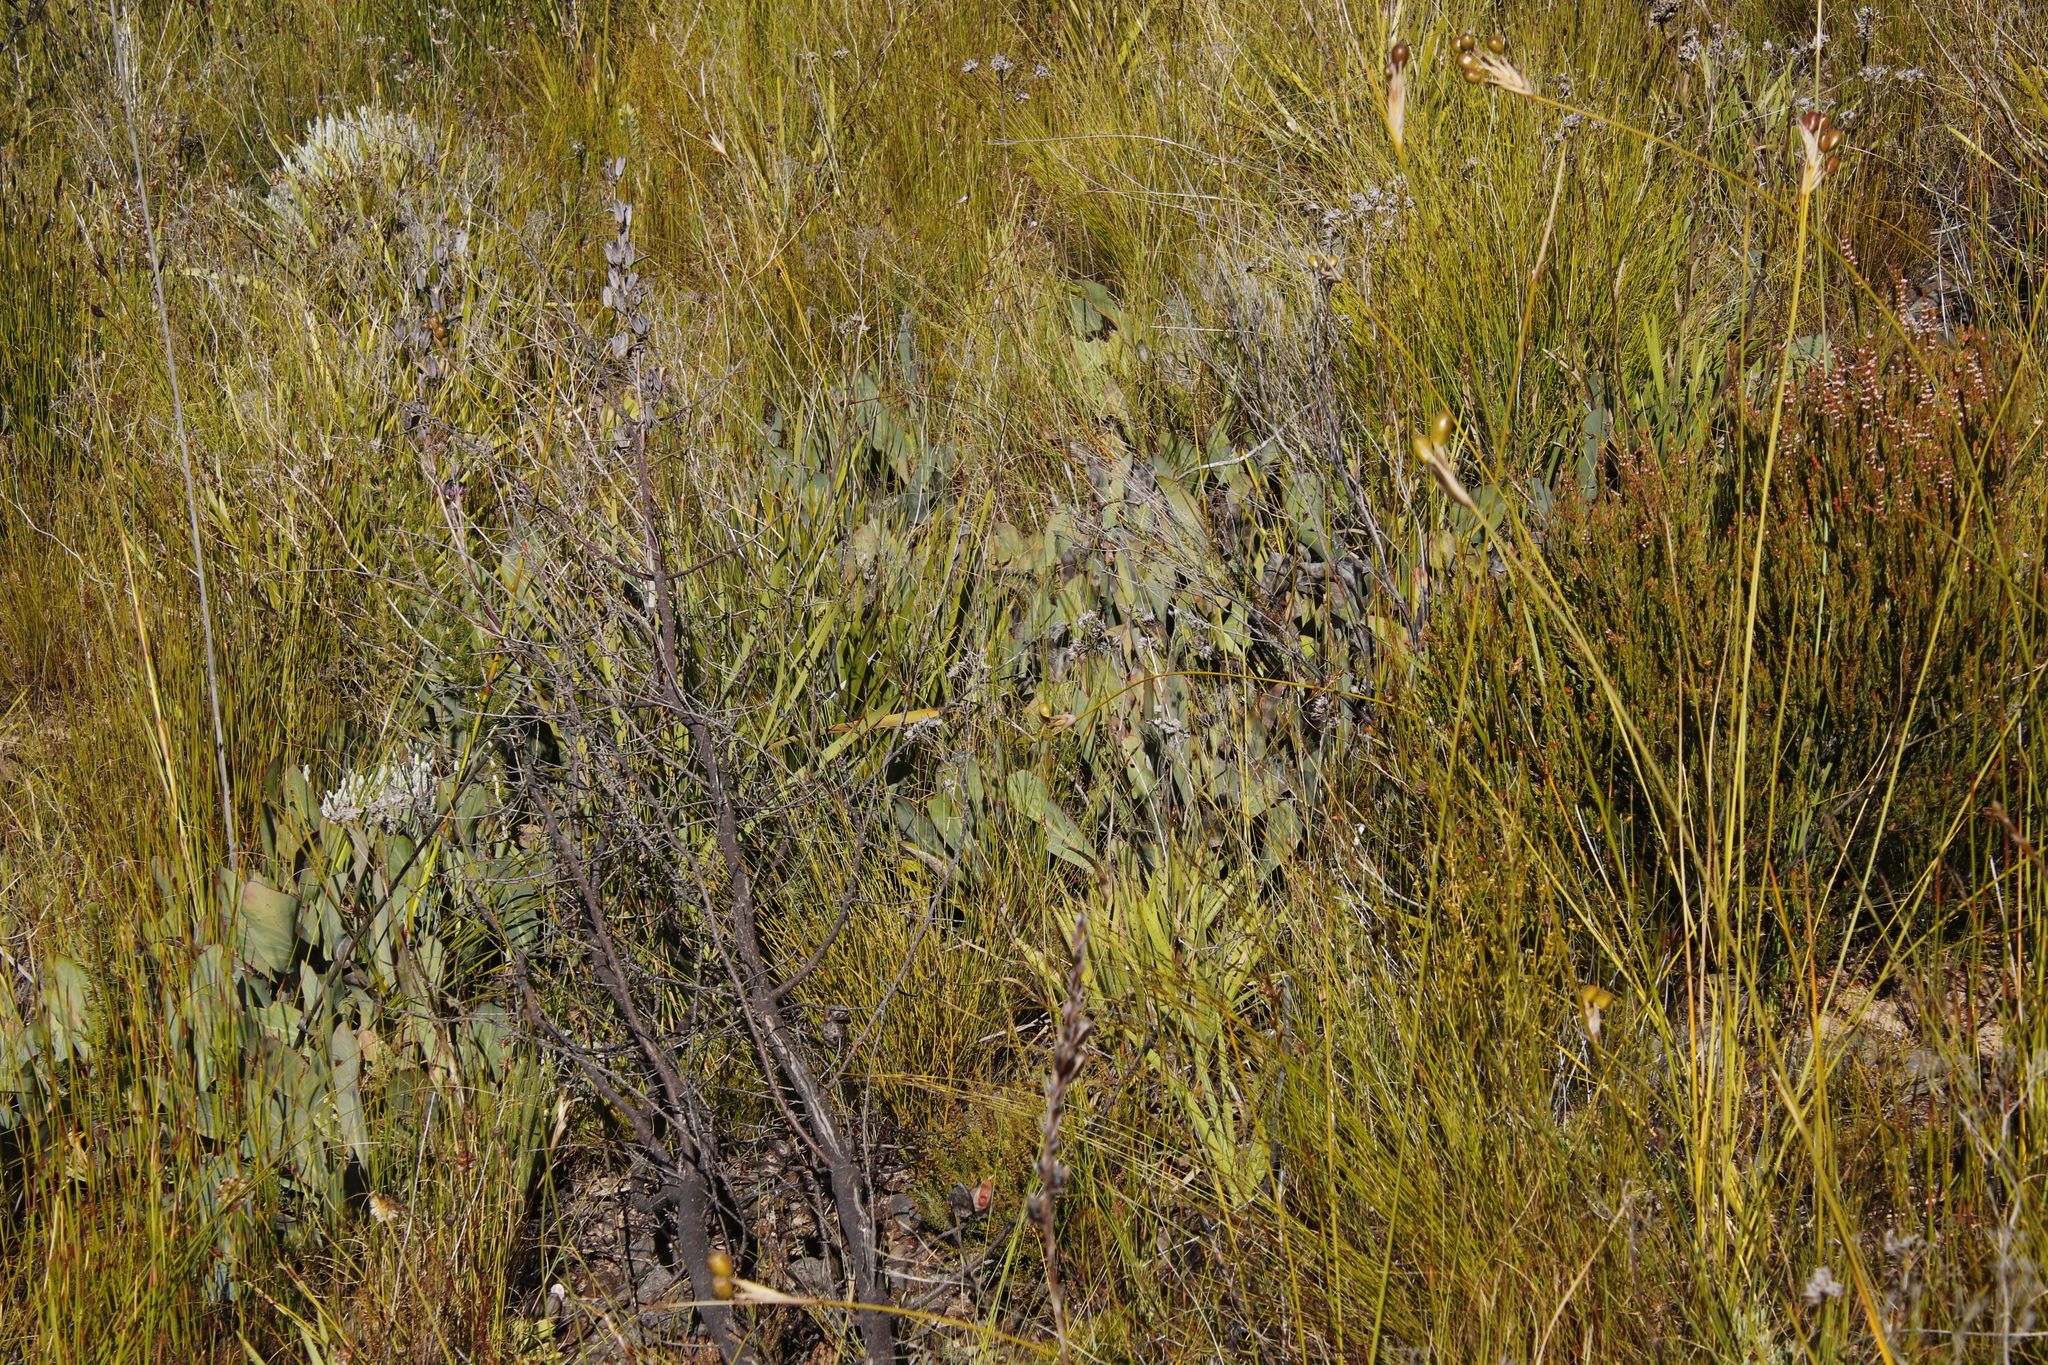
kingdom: Plantae
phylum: Tracheophyta
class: Magnoliopsida
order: Proteales
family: Proteaceae
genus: Protea
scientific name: Protea acaulos
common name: Common ground sugarbush
